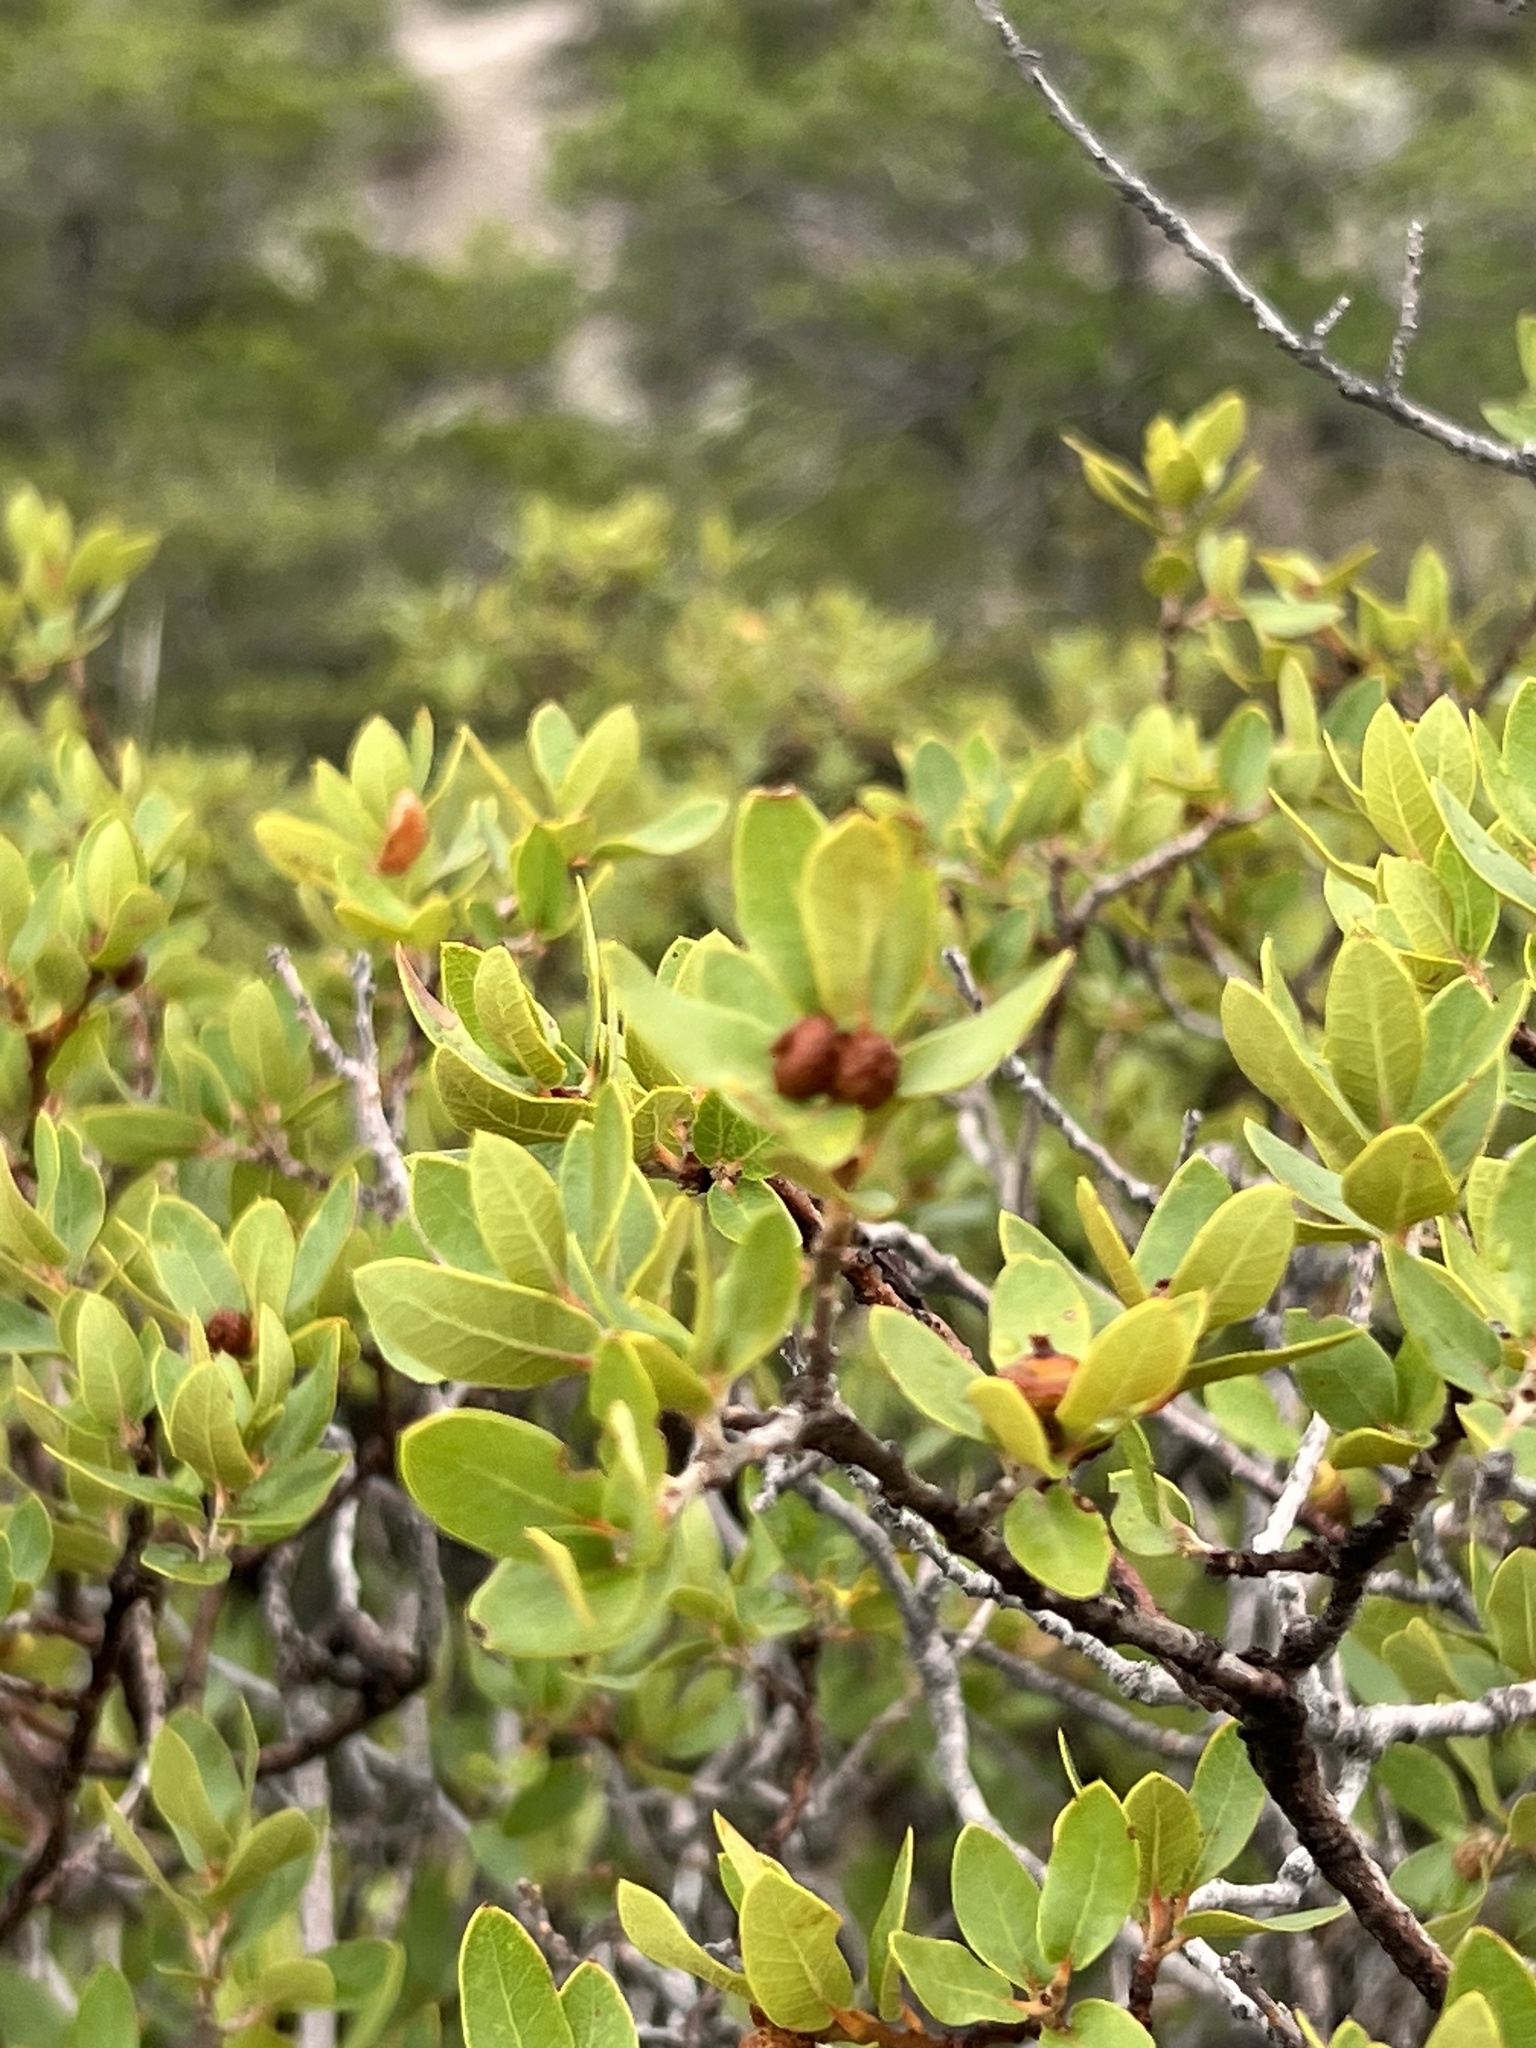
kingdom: Plantae
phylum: Tracheophyta
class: Magnoliopsida
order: Fagales
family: Fagaceae
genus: Quercus
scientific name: Quercus toumeyi
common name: Toumey oak
